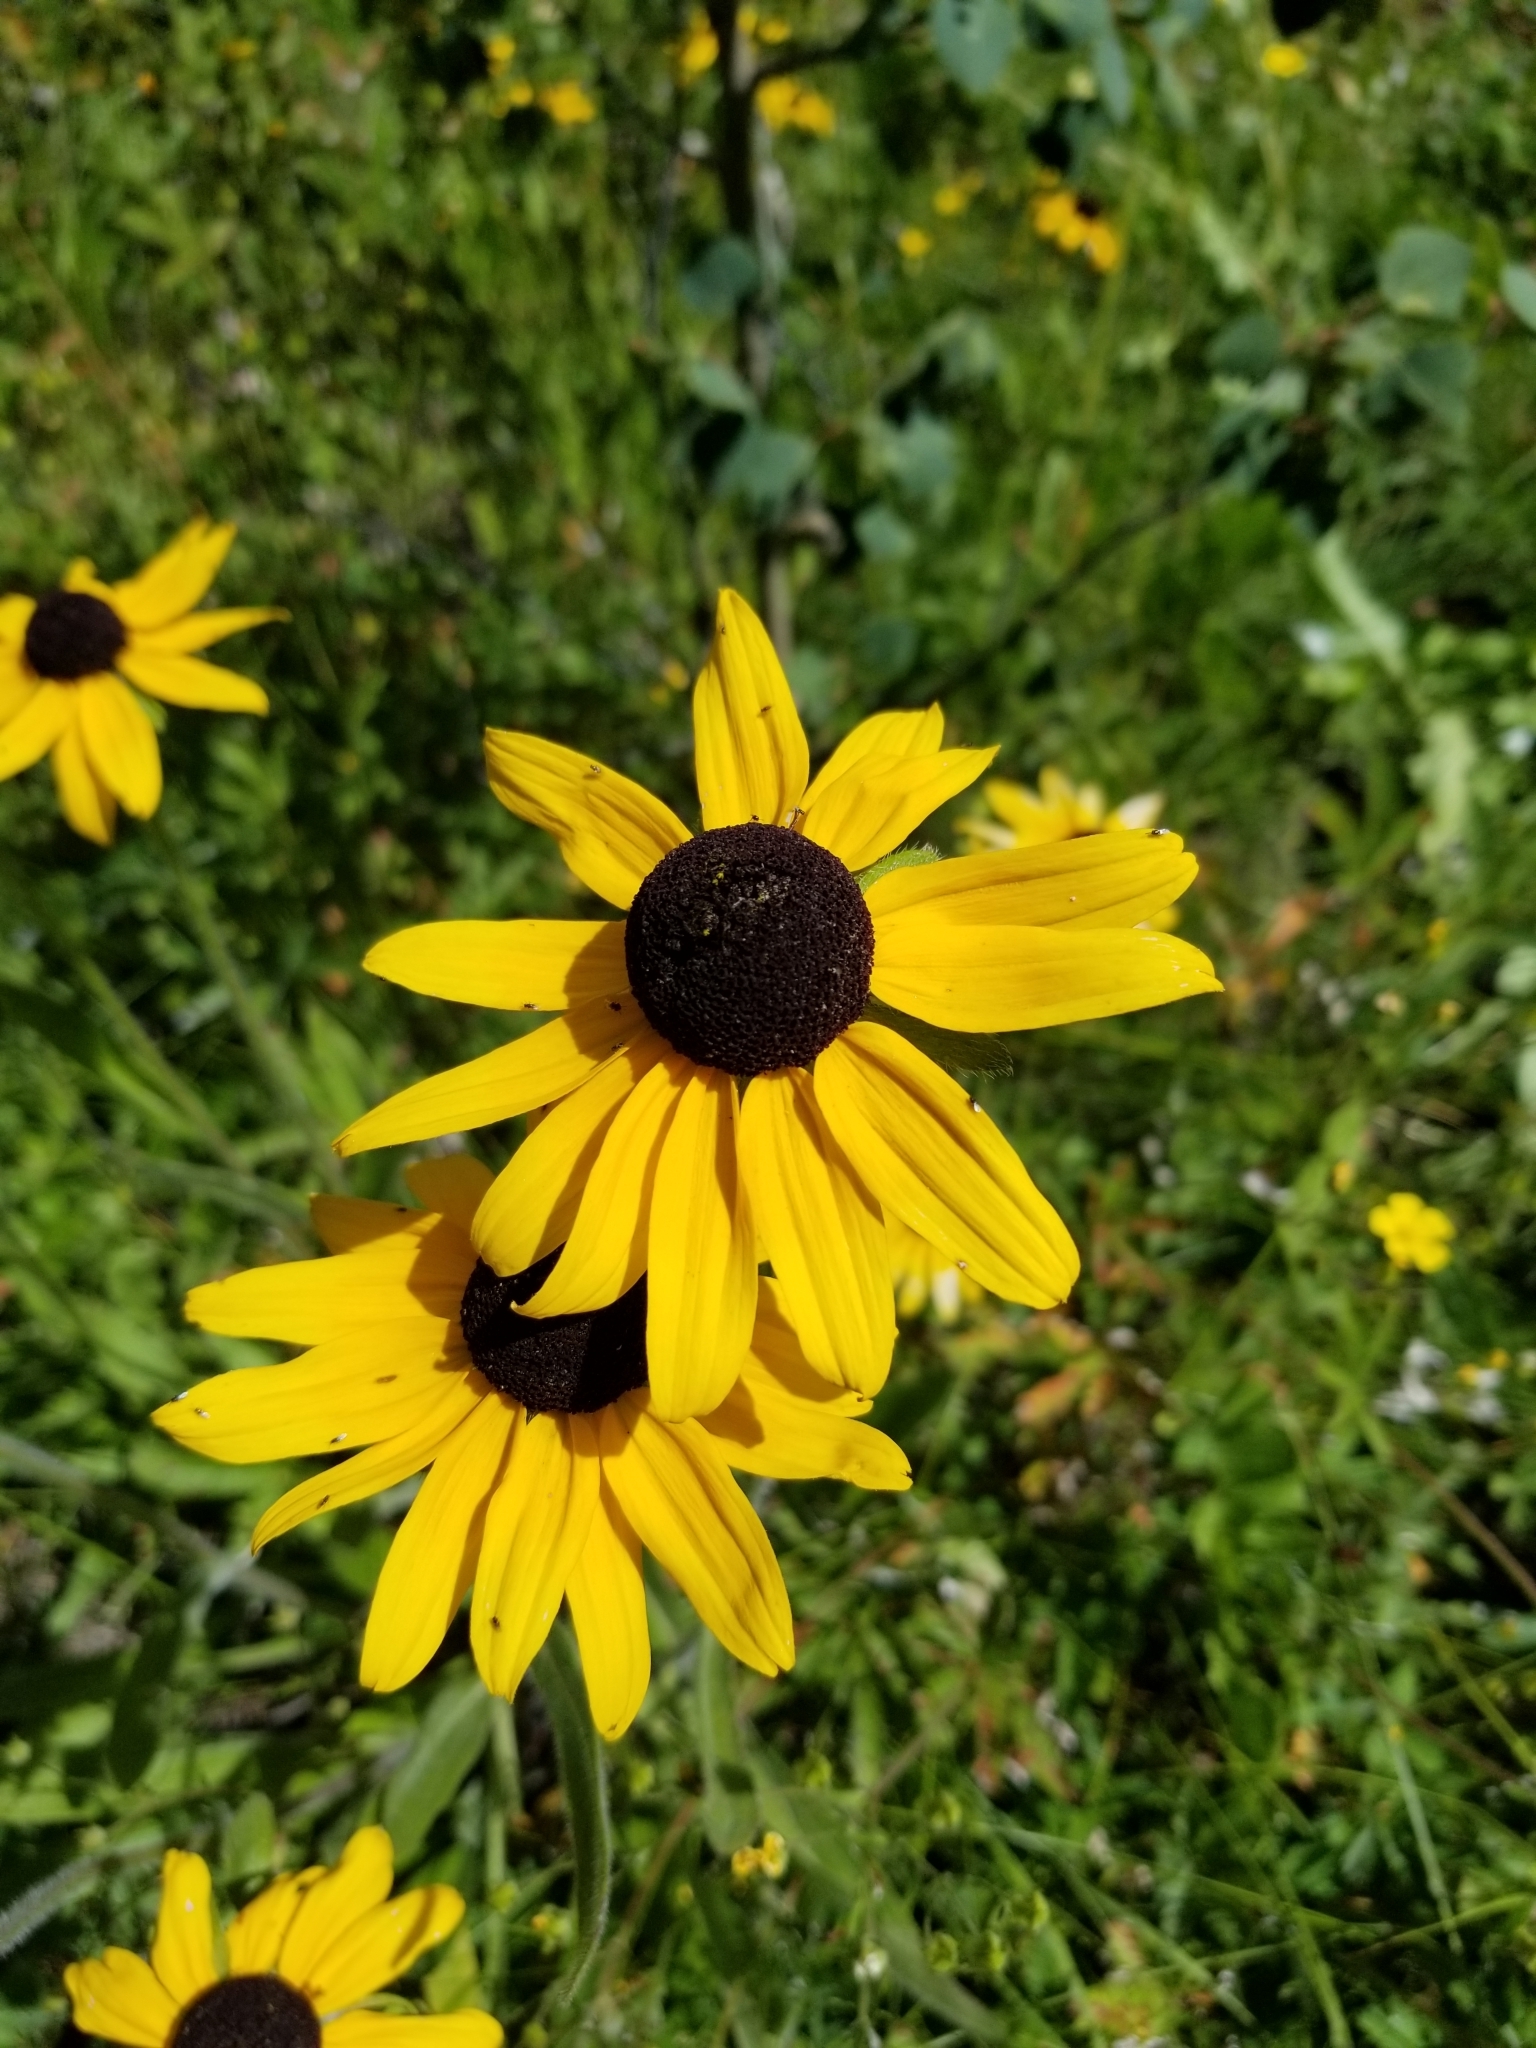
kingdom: Plantae
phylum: Tracheophyta
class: Magnoliopsida
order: Asterales
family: Asteraceae
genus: Rudbeckia
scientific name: Rudbeckia hirta
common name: Black-eyed-susan
